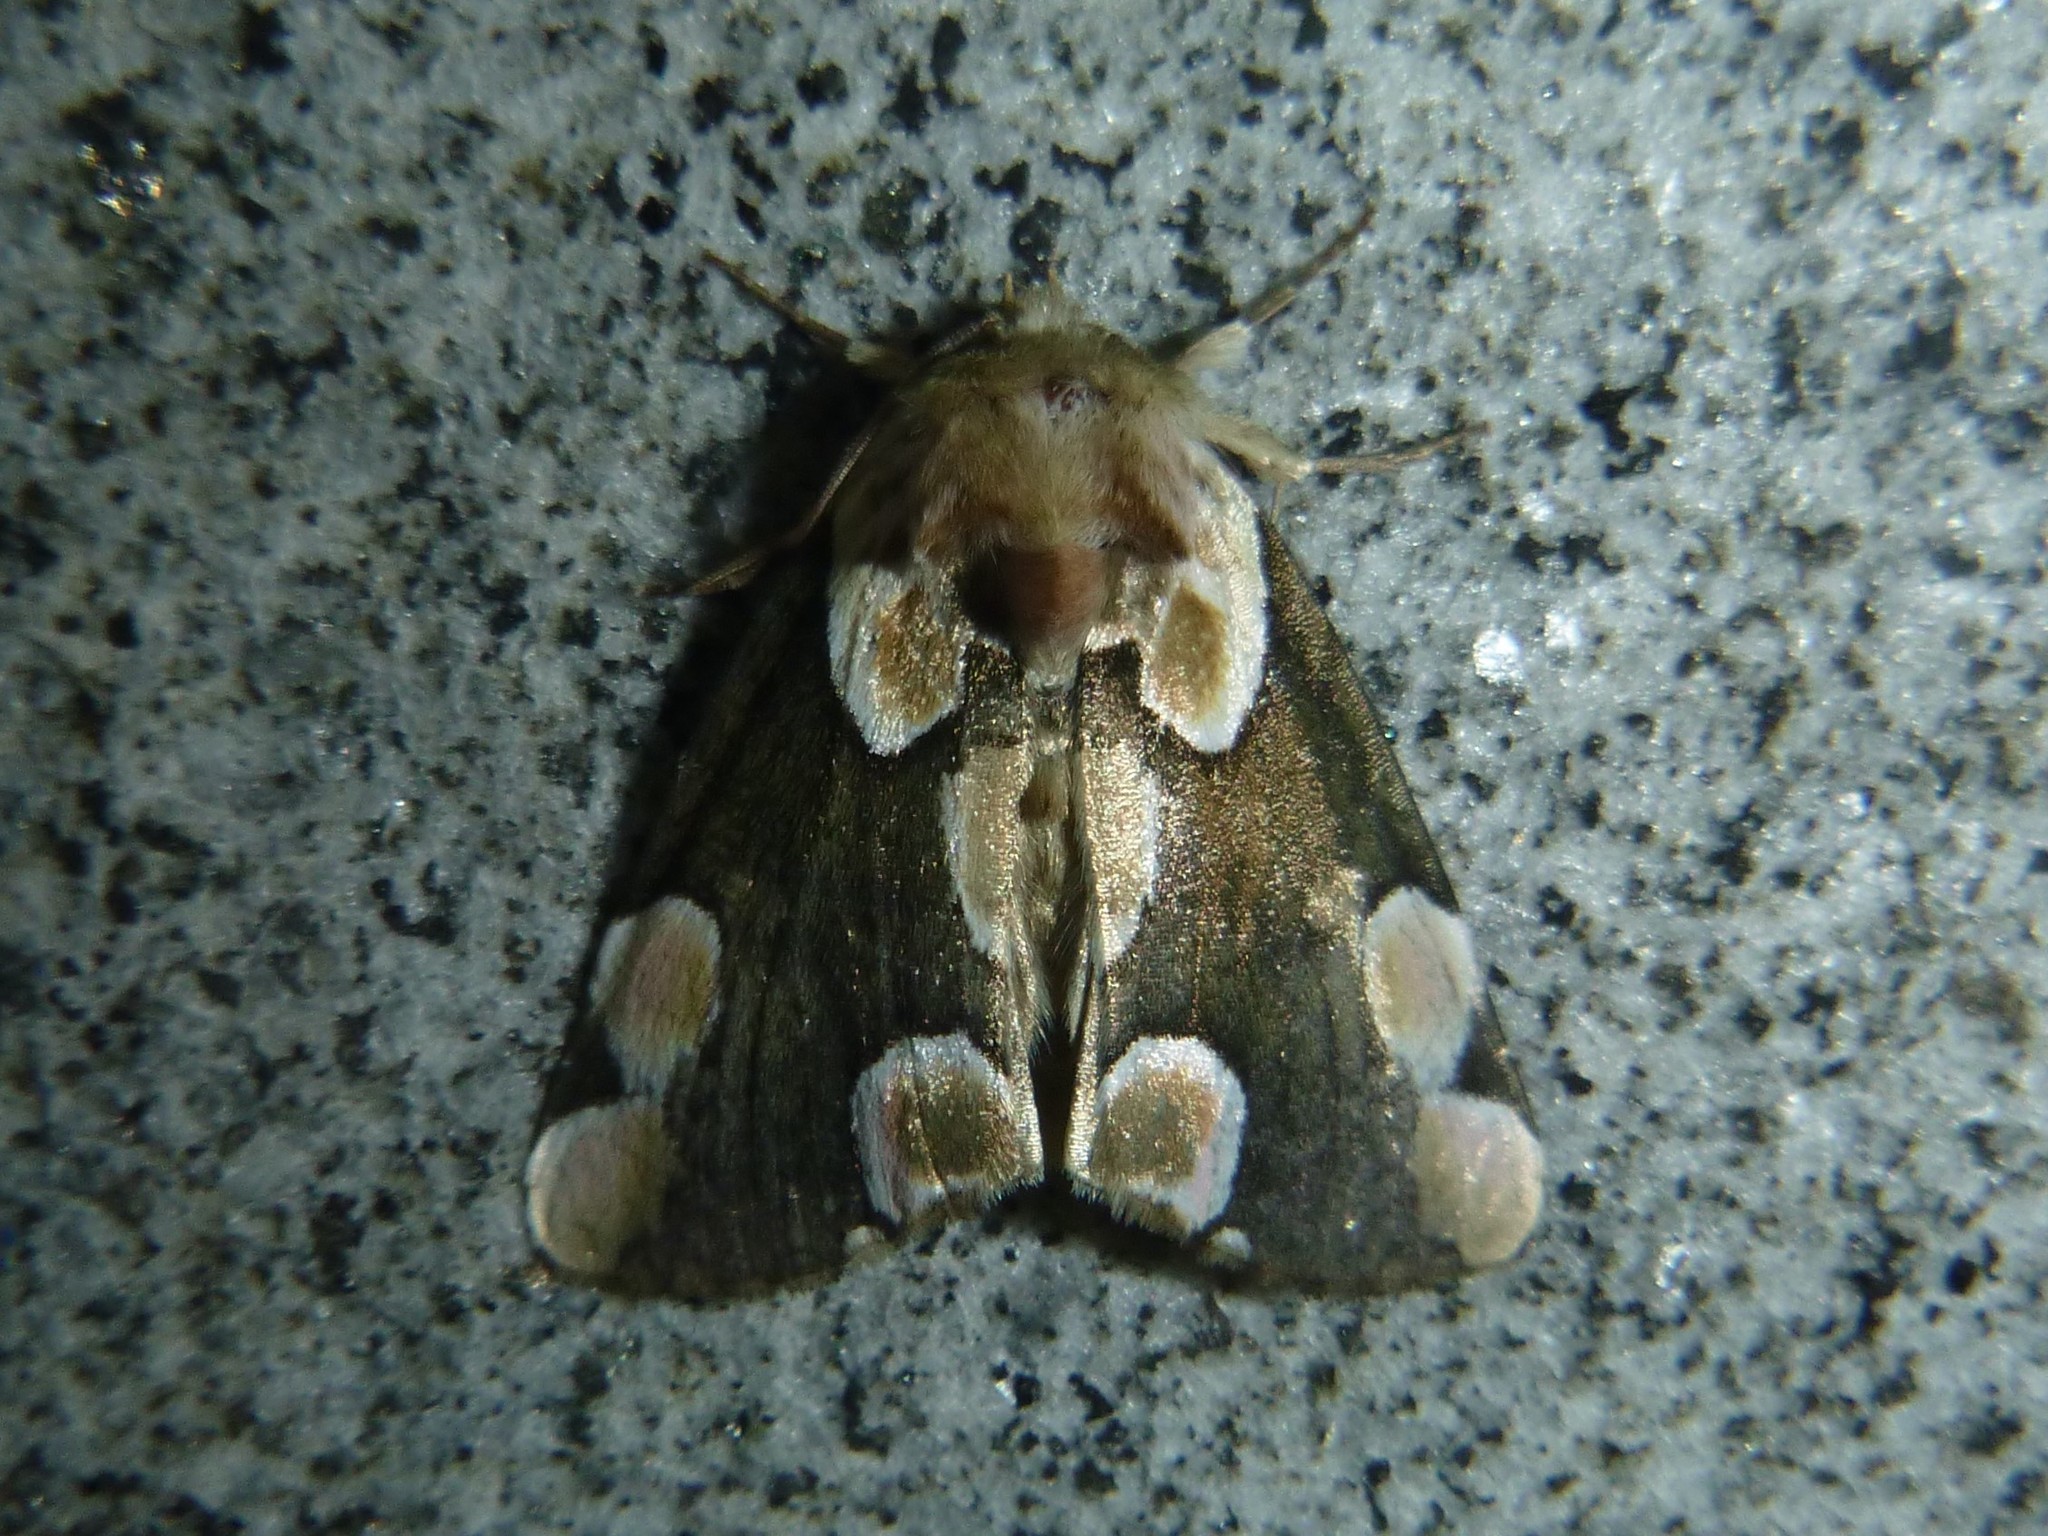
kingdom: Animalia
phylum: Arthropoda
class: Insecta
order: Lepidoptera
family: Drepanidae
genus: Thyatira
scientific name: Thyatira batis
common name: Peach blossom
